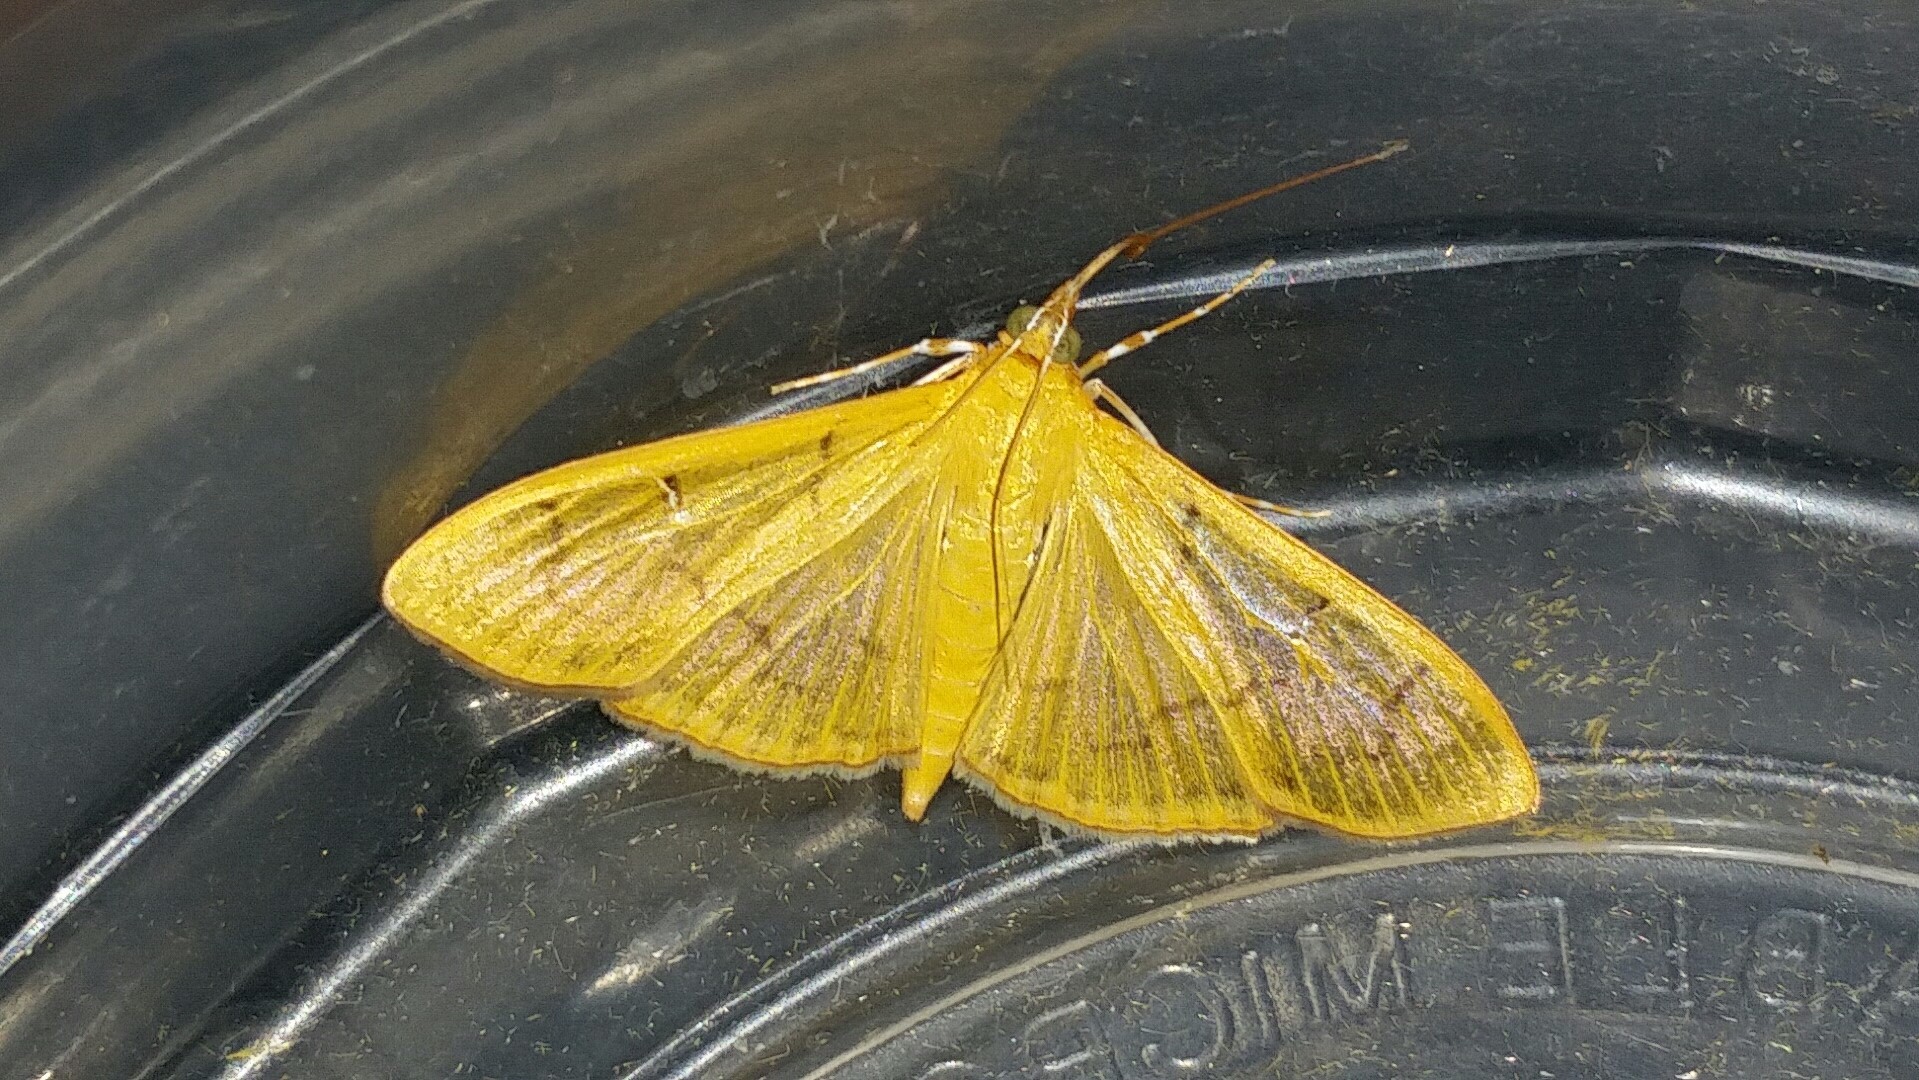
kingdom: Animalia
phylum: Arthropoda
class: Insecta
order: Lepidoptera
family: Crambidae
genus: Condylorrhiza
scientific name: Condylorrhiza vestigialis
